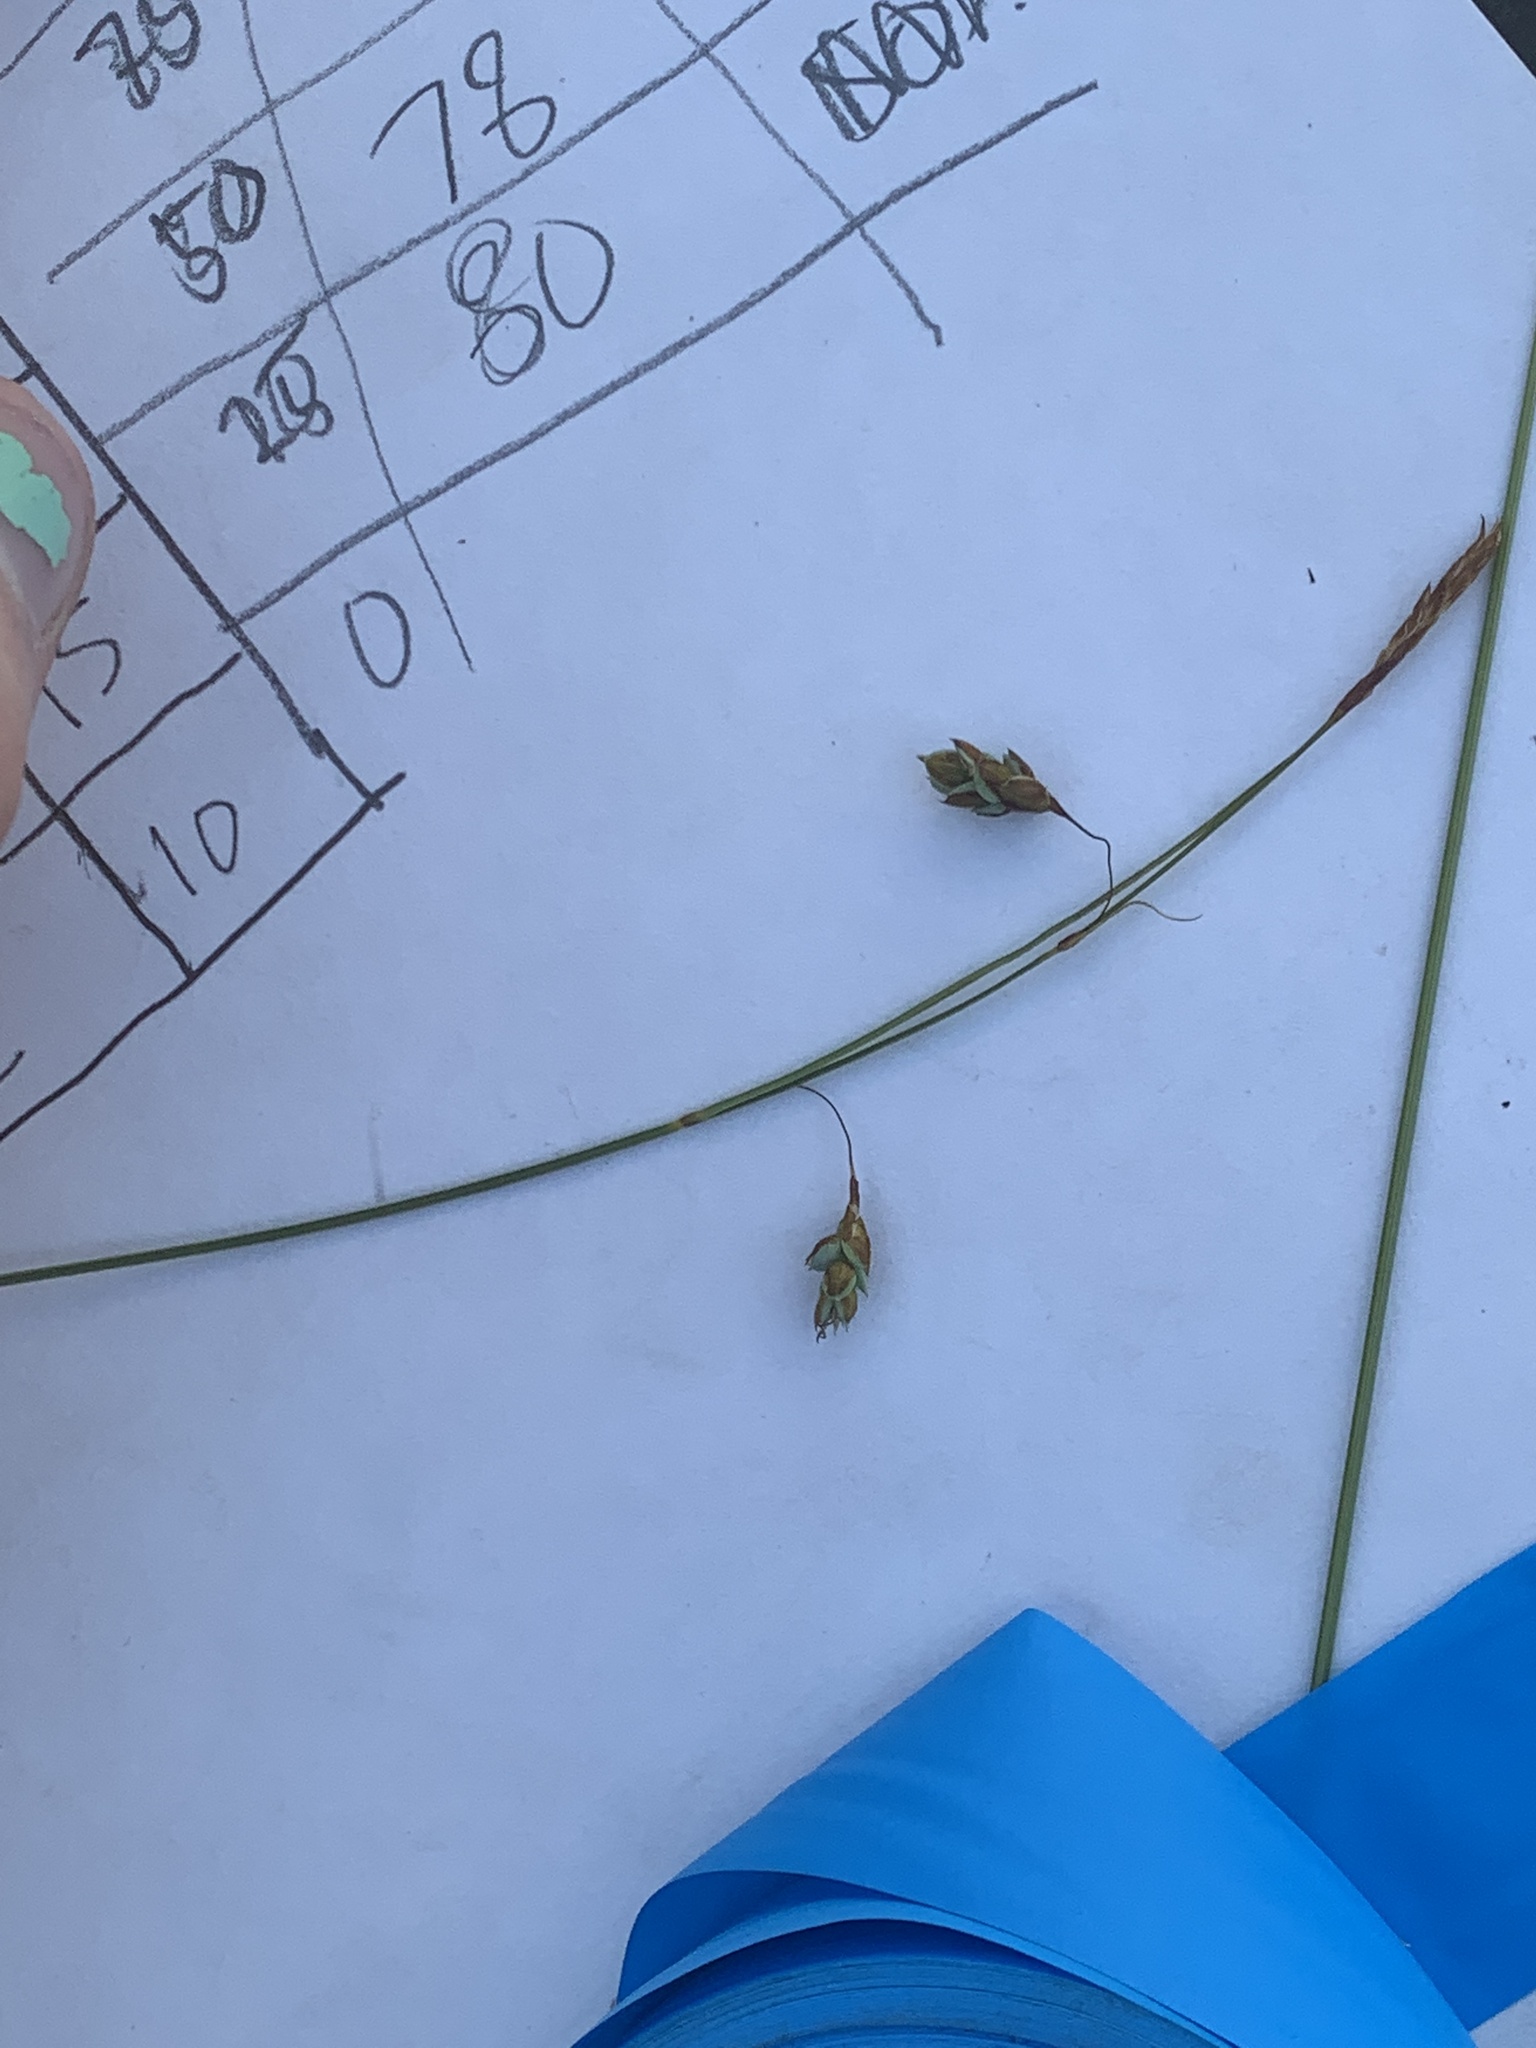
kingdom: Plantae
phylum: Tracheophyta
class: Liliopsida
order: Poales
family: Cyperaceae
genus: Carex
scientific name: Carex limosa
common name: Bog sedge
